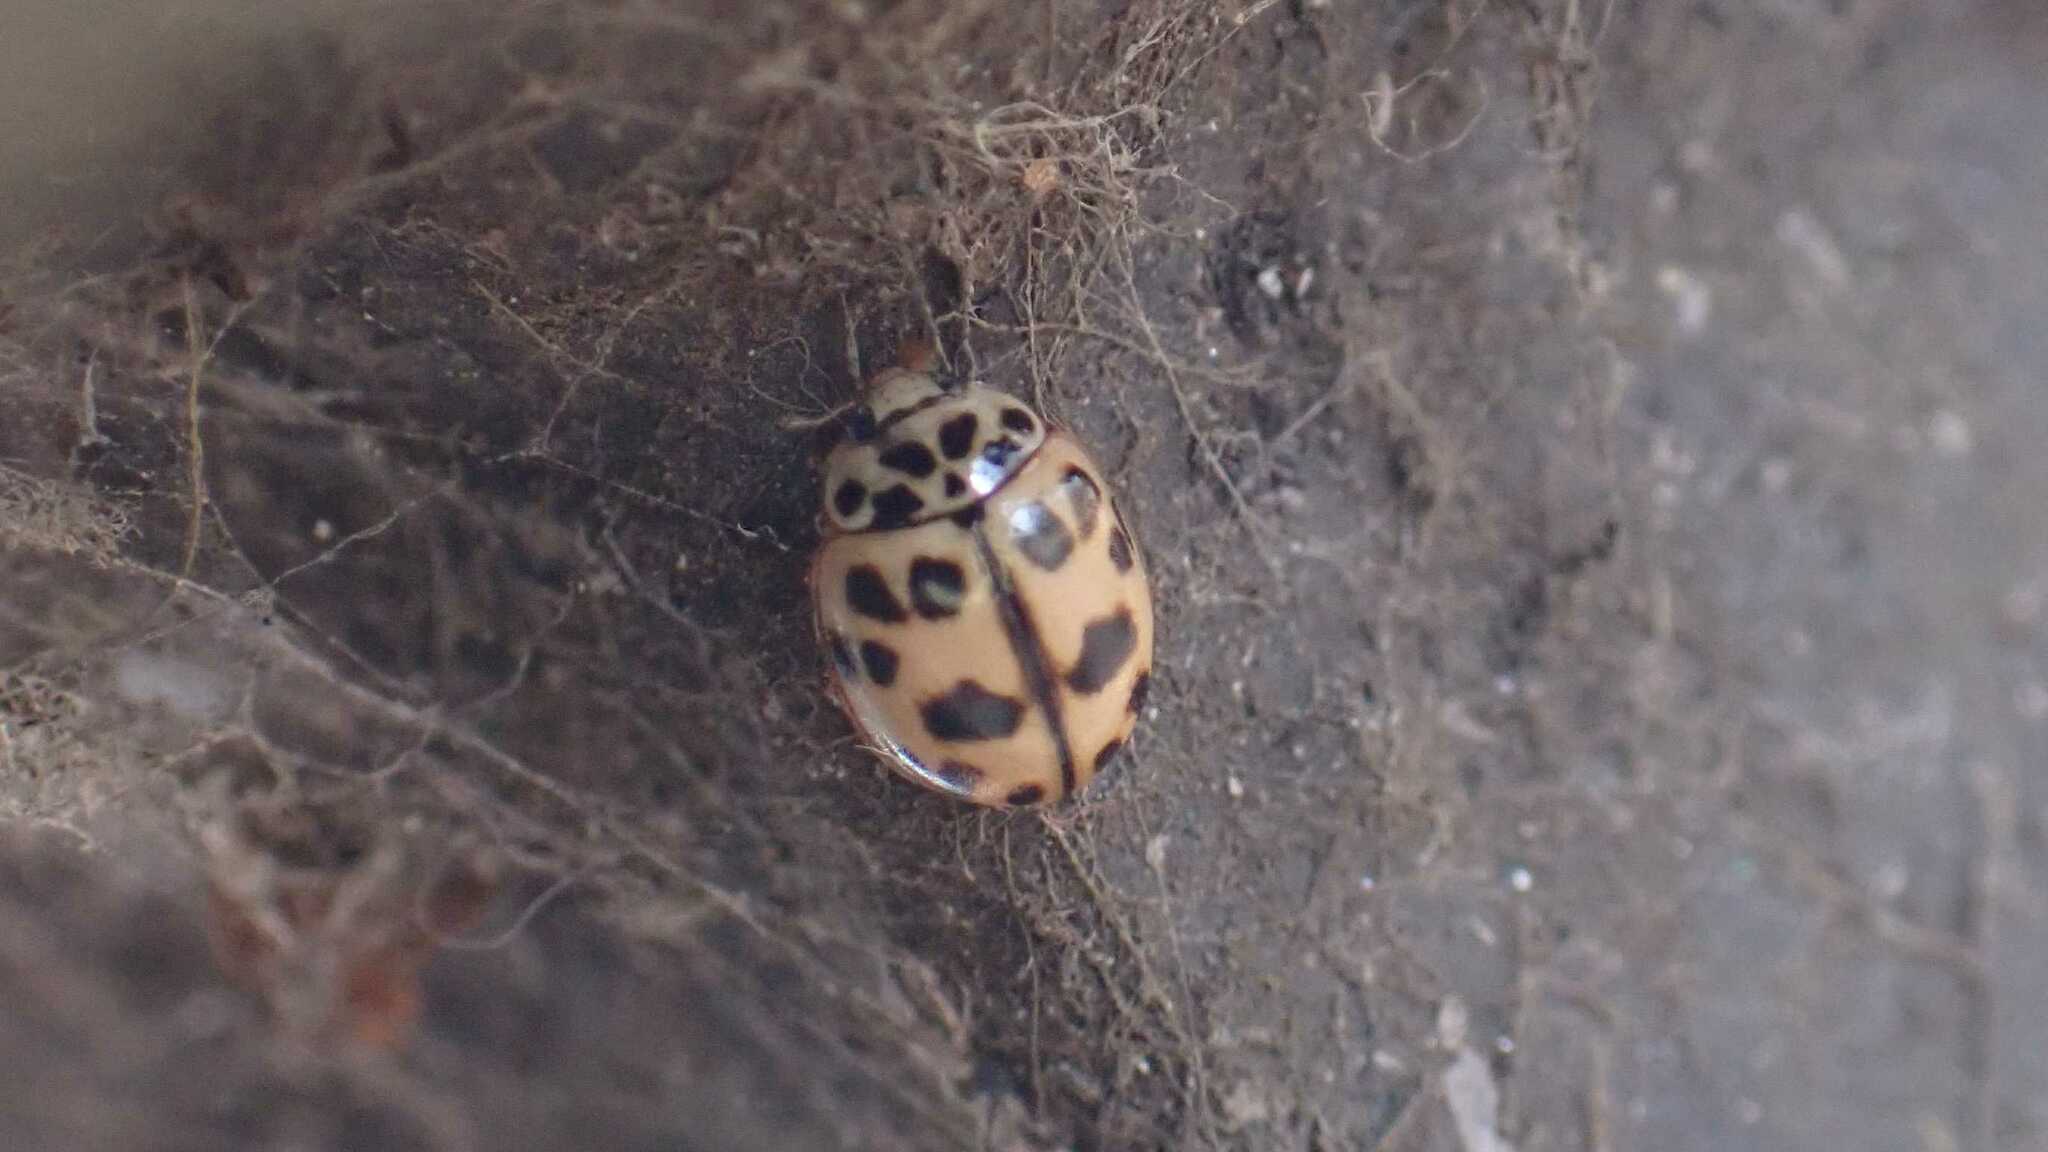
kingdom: Animalia
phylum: Arthropoda
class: Insecta
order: Coleoptera
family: Coccinellidae
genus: Oenopia
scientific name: Oenopia conglobata
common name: Ladybird beetle
